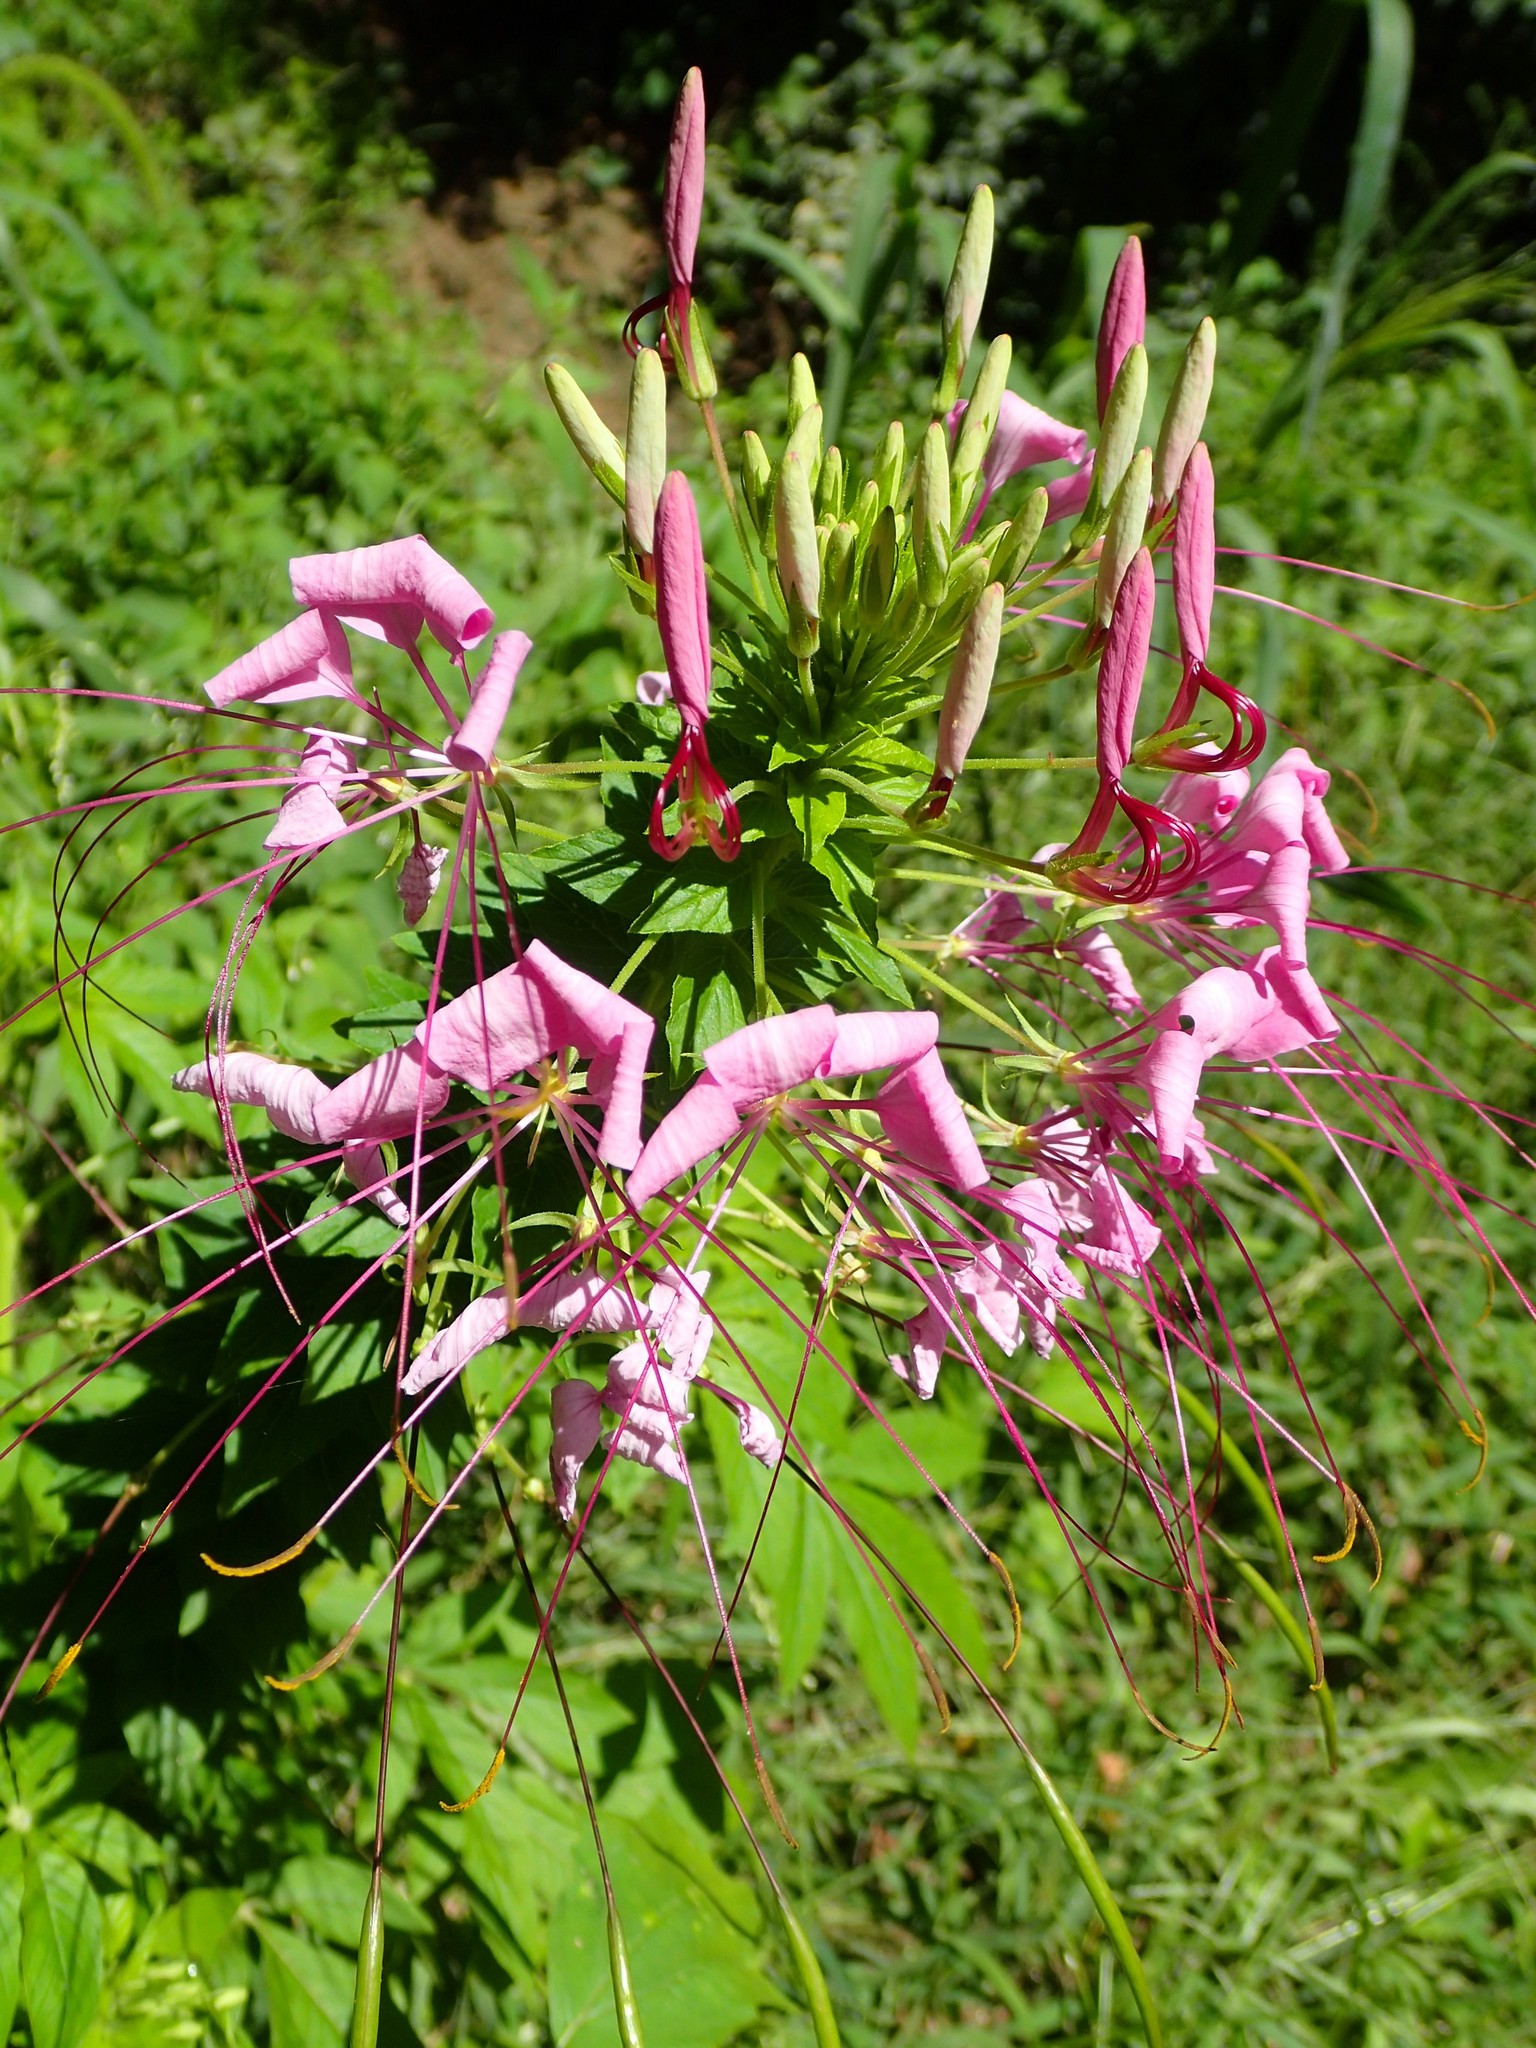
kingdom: Plantae
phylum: Tracheophyta
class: Magnoliopsida
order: Brassicales
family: Cleomaceae
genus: Tarenaya
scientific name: Tarenaya houtteana
